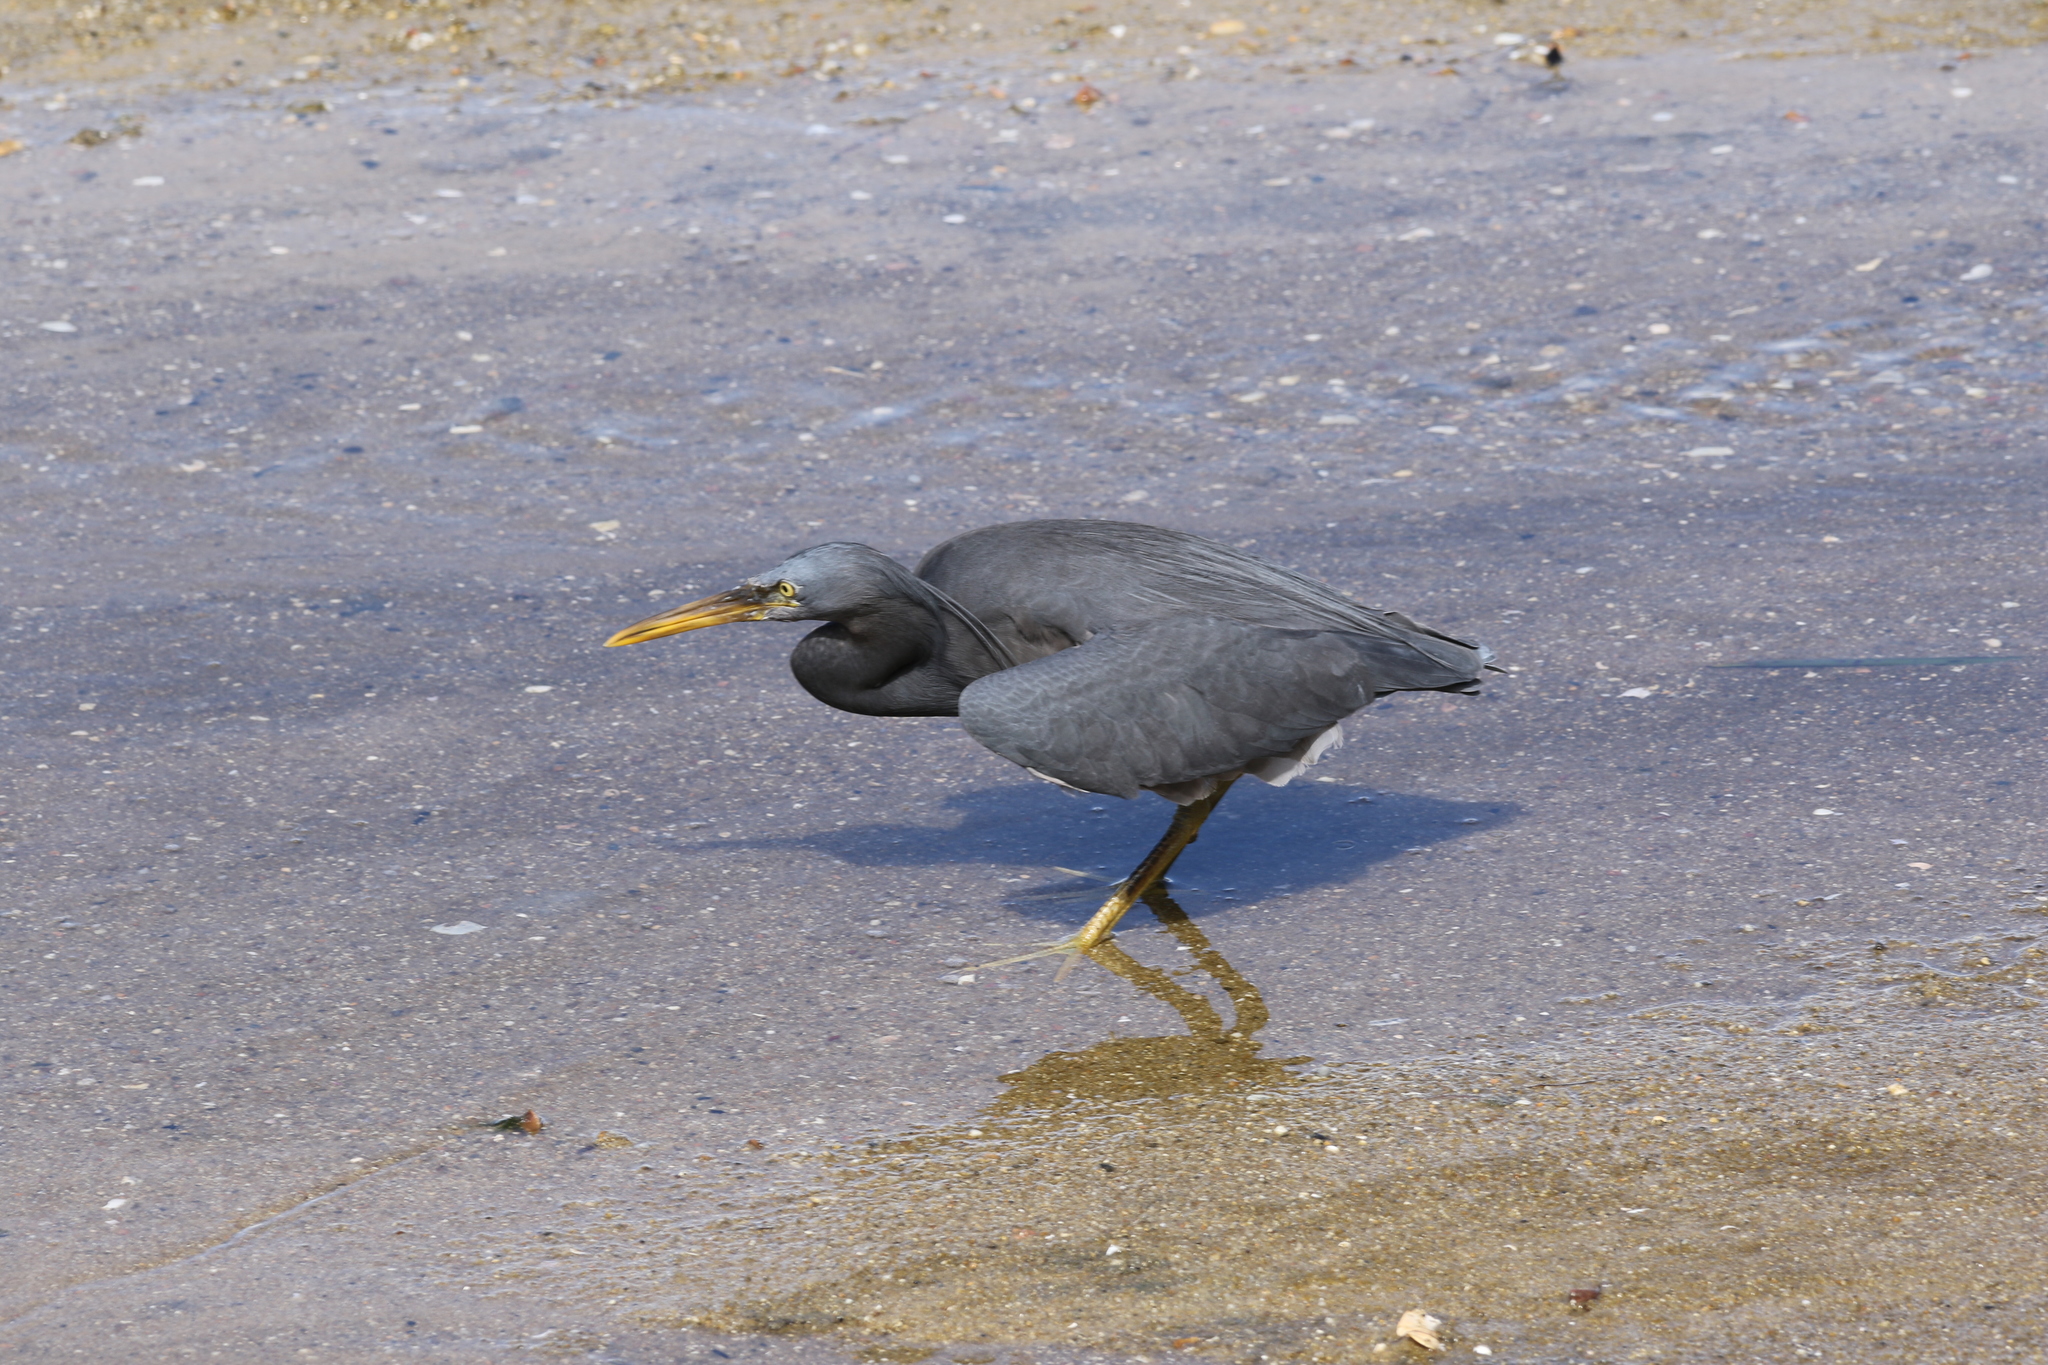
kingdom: Animalia
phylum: Chordata
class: Aves
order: Pelecaniformes
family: Ardeidae
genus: Egretta
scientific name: Egretta sacra
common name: Pacific reef heron
